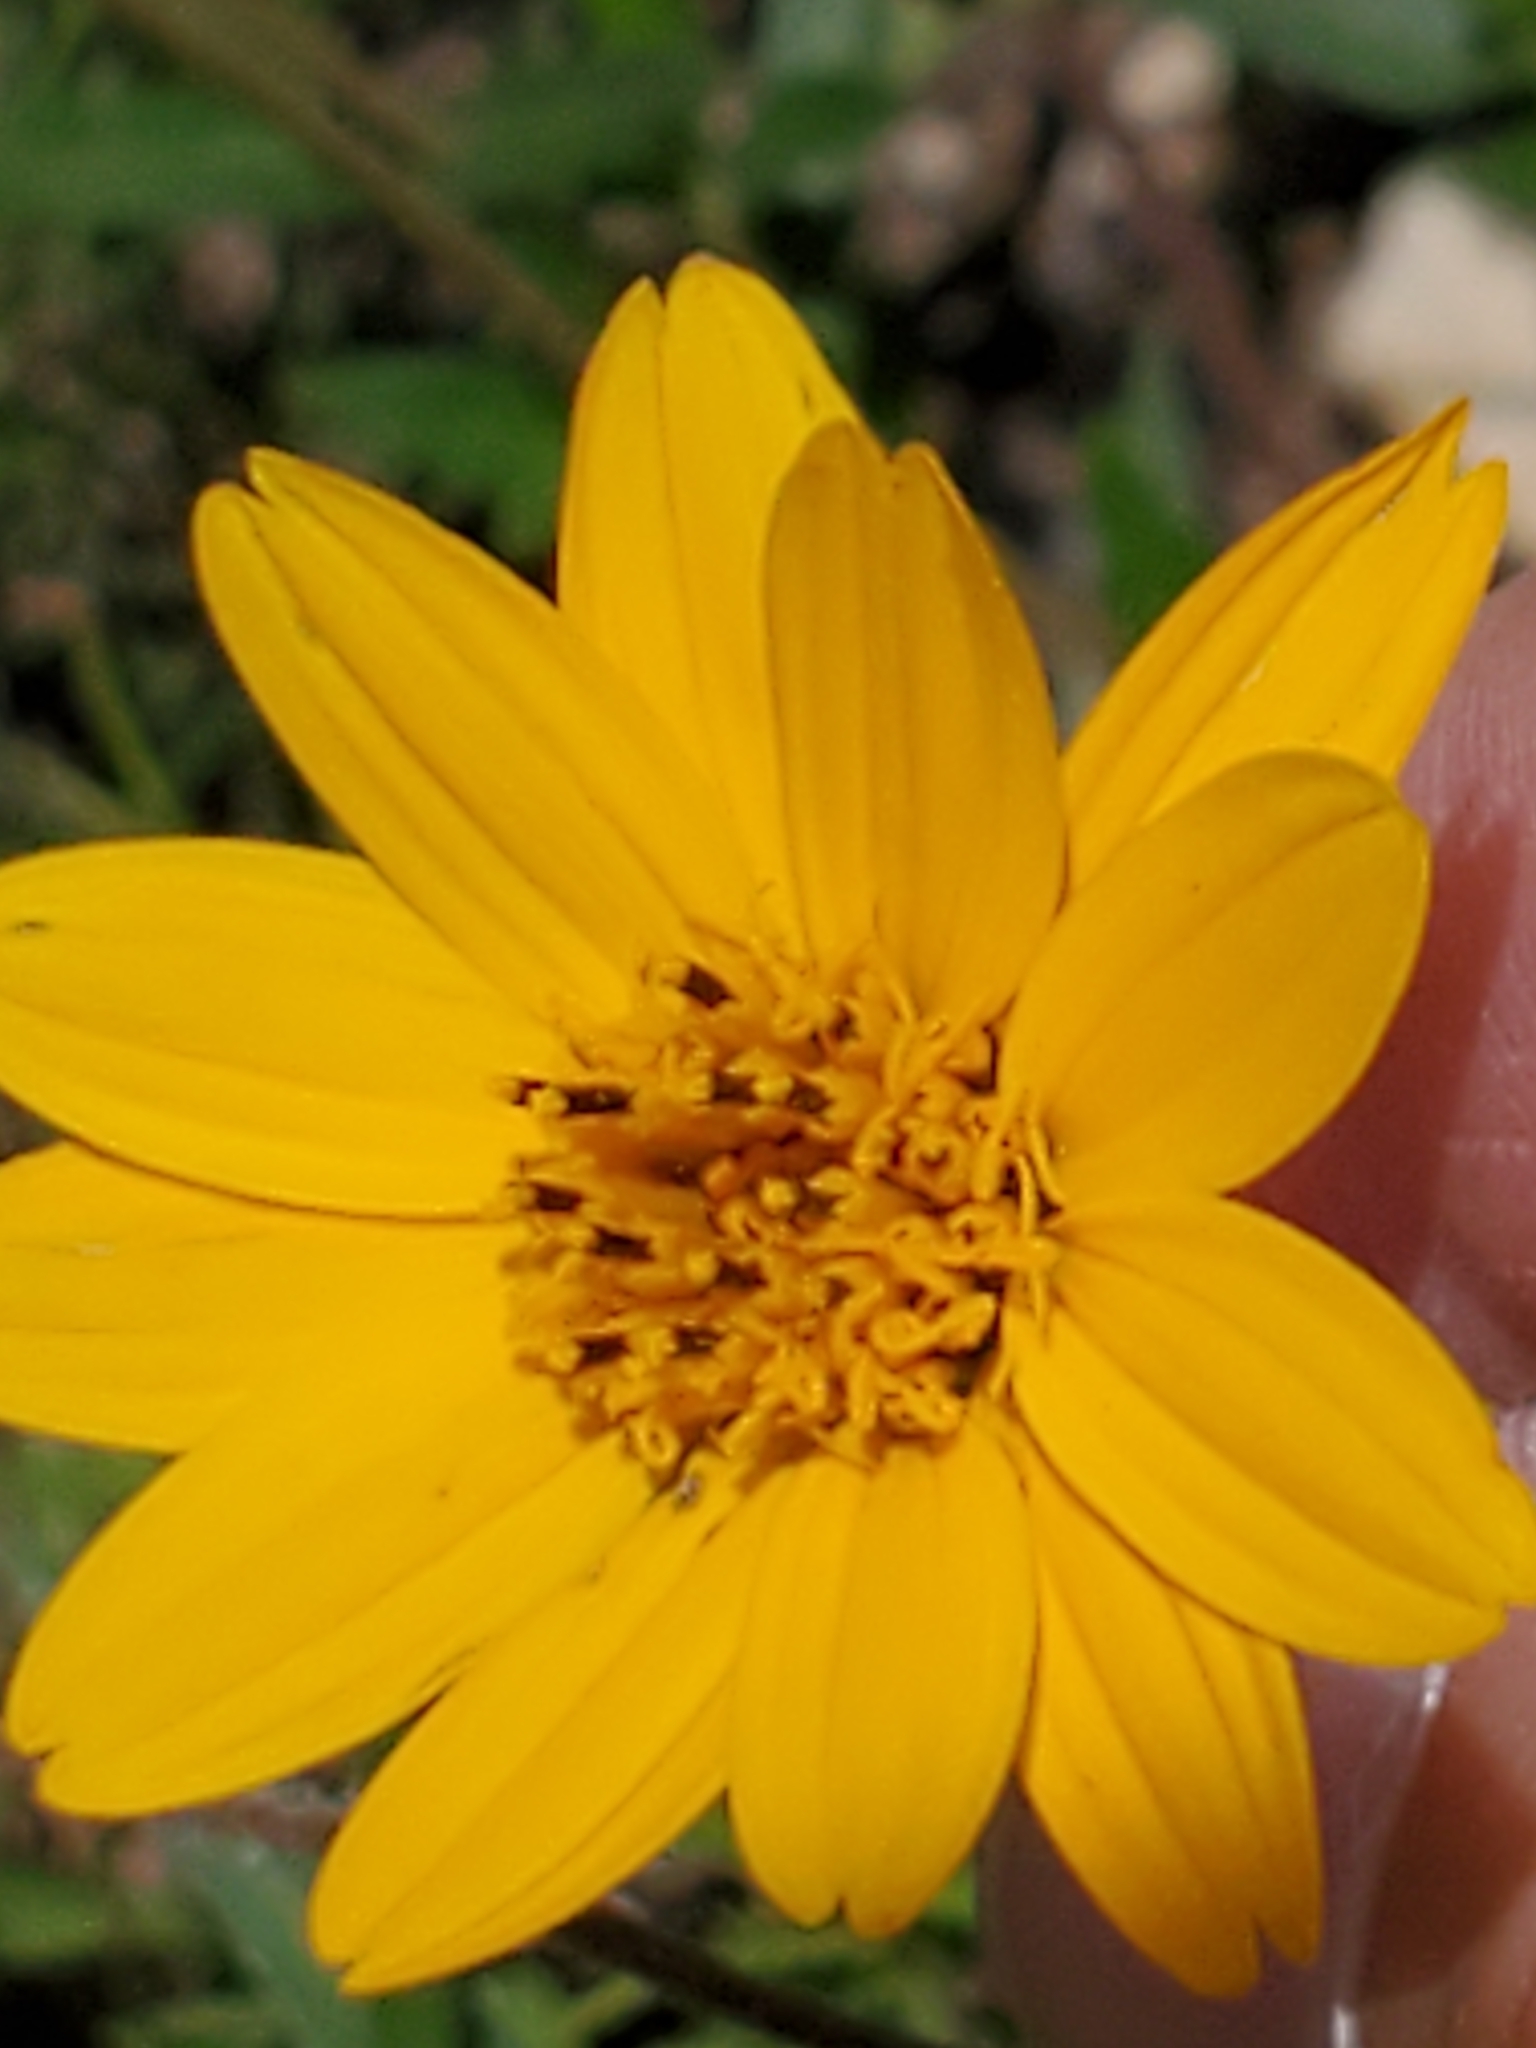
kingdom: Plantae
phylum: Tracheophyta
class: Magnoliopsida
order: Asterales
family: Asteraceae
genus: Wedelia
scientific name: Wedelia acapulcensis
